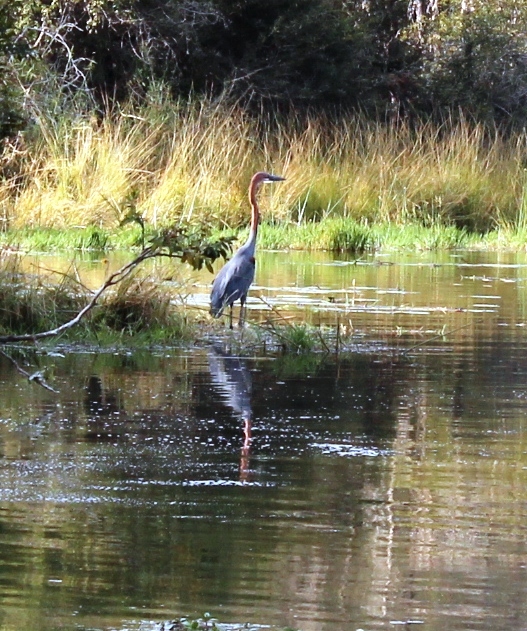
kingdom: Animalia
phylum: Chordata
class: Aves
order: Pelecaniformes
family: Ardeidae
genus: Ardea
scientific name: Ardea goliath
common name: Goliath heron
